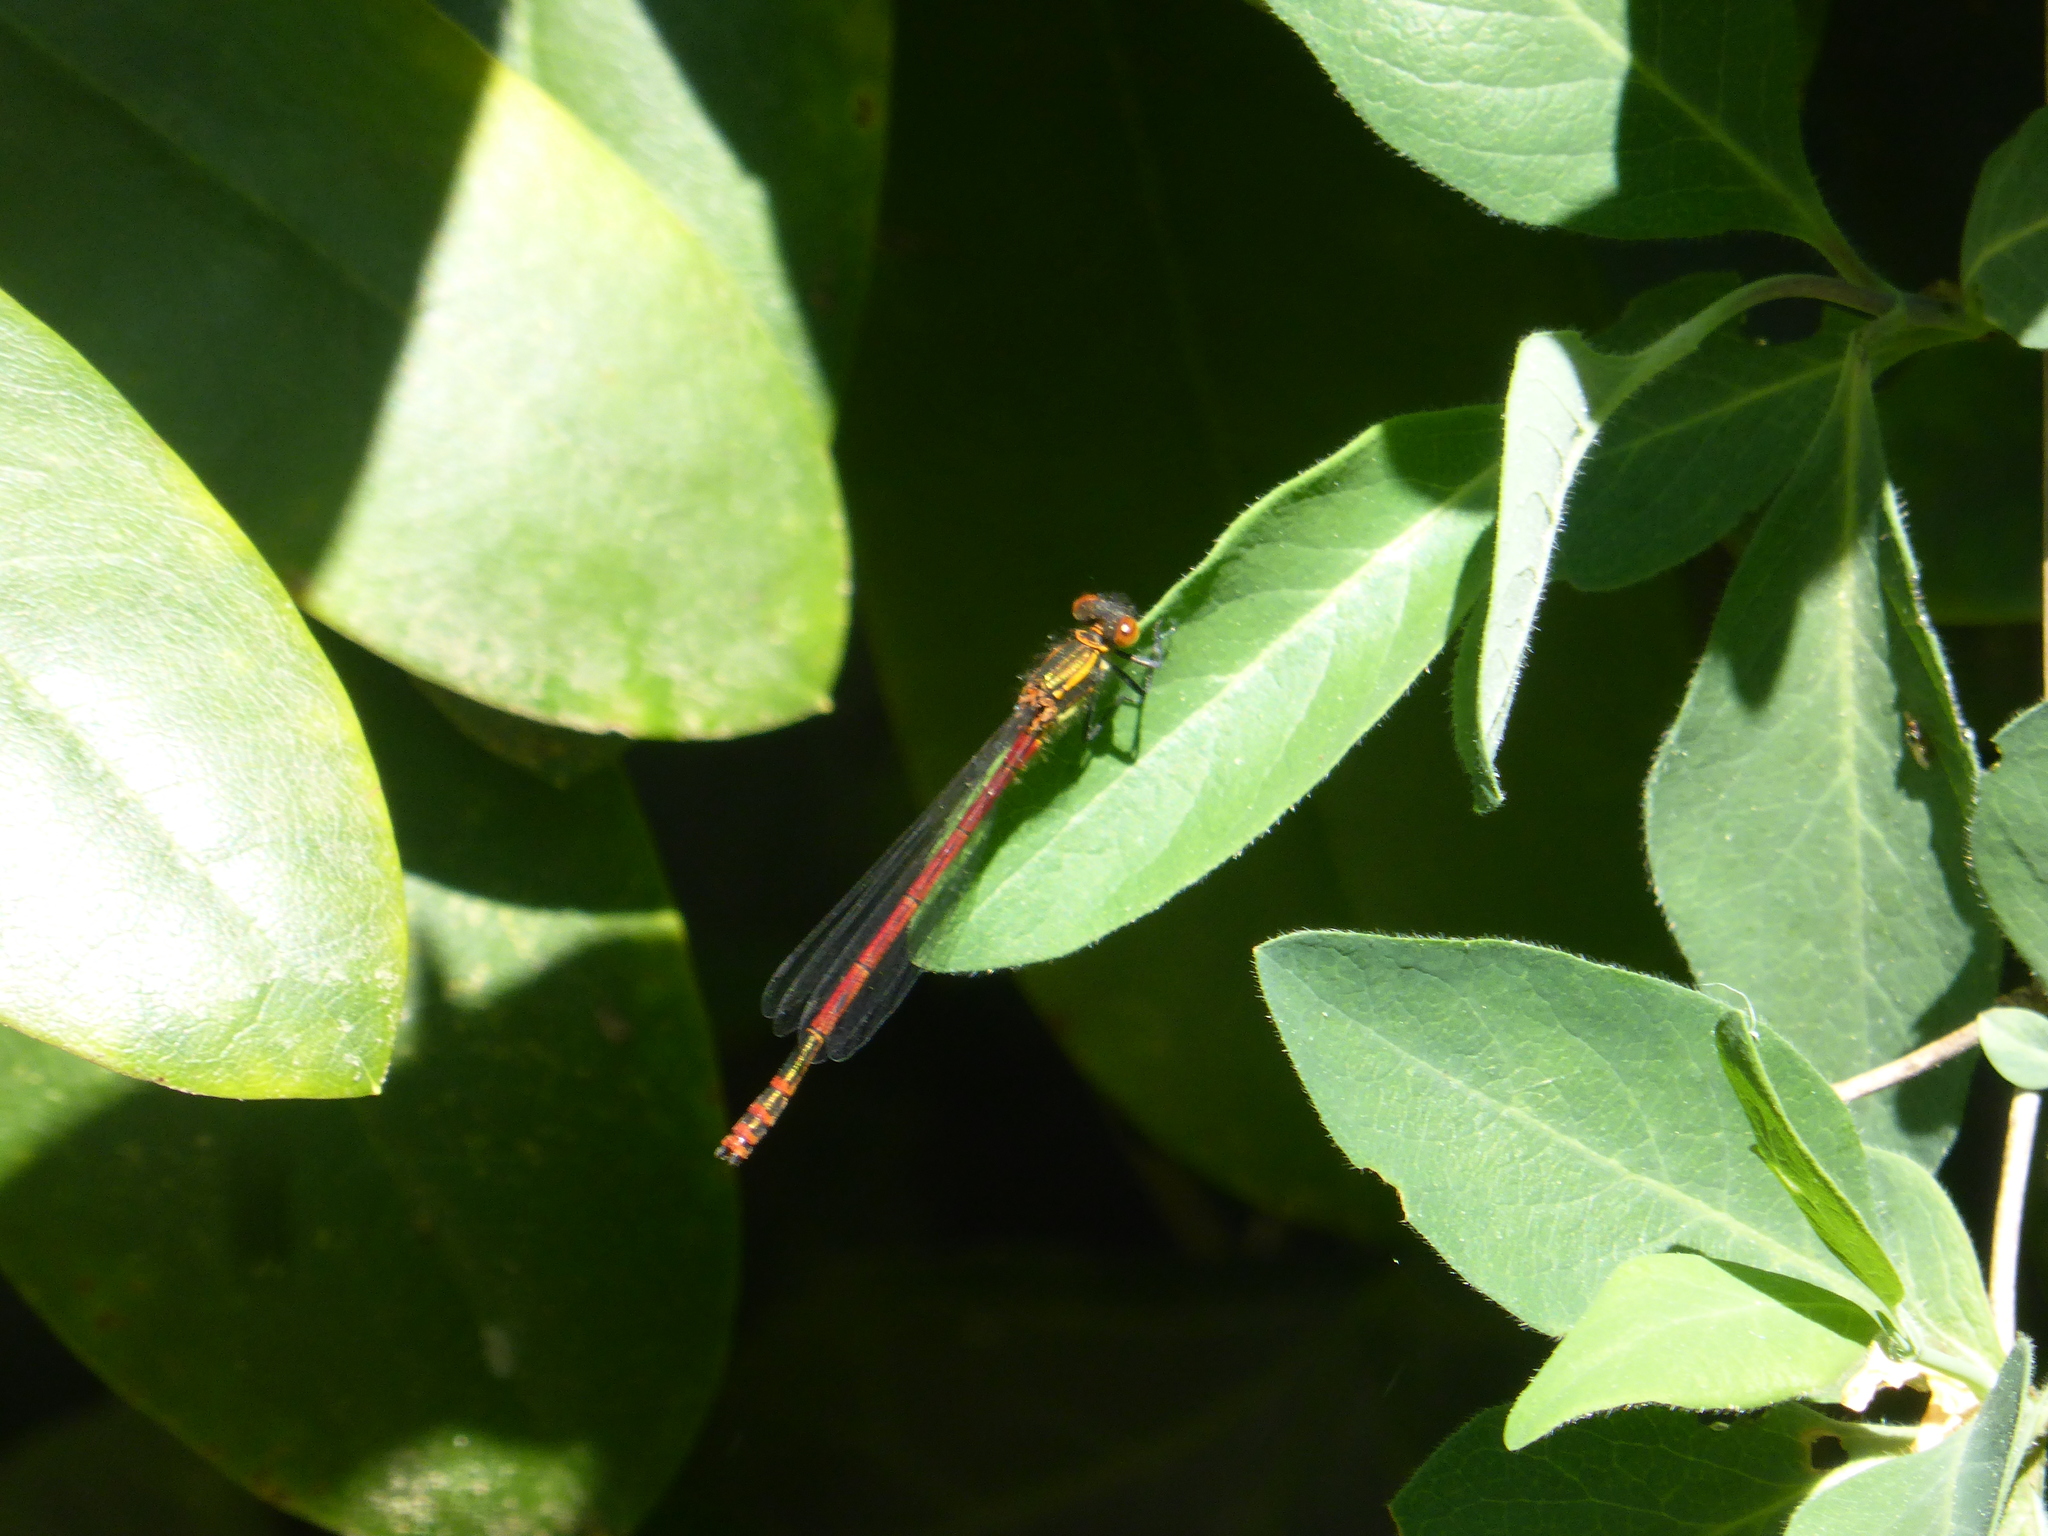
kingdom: Animalia
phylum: Arthropoda
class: Insecta
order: Odonata
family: Coenagrionidae
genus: Pyrrhosoma
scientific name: Pyrrhosoma nymphula
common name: Large red damsel
